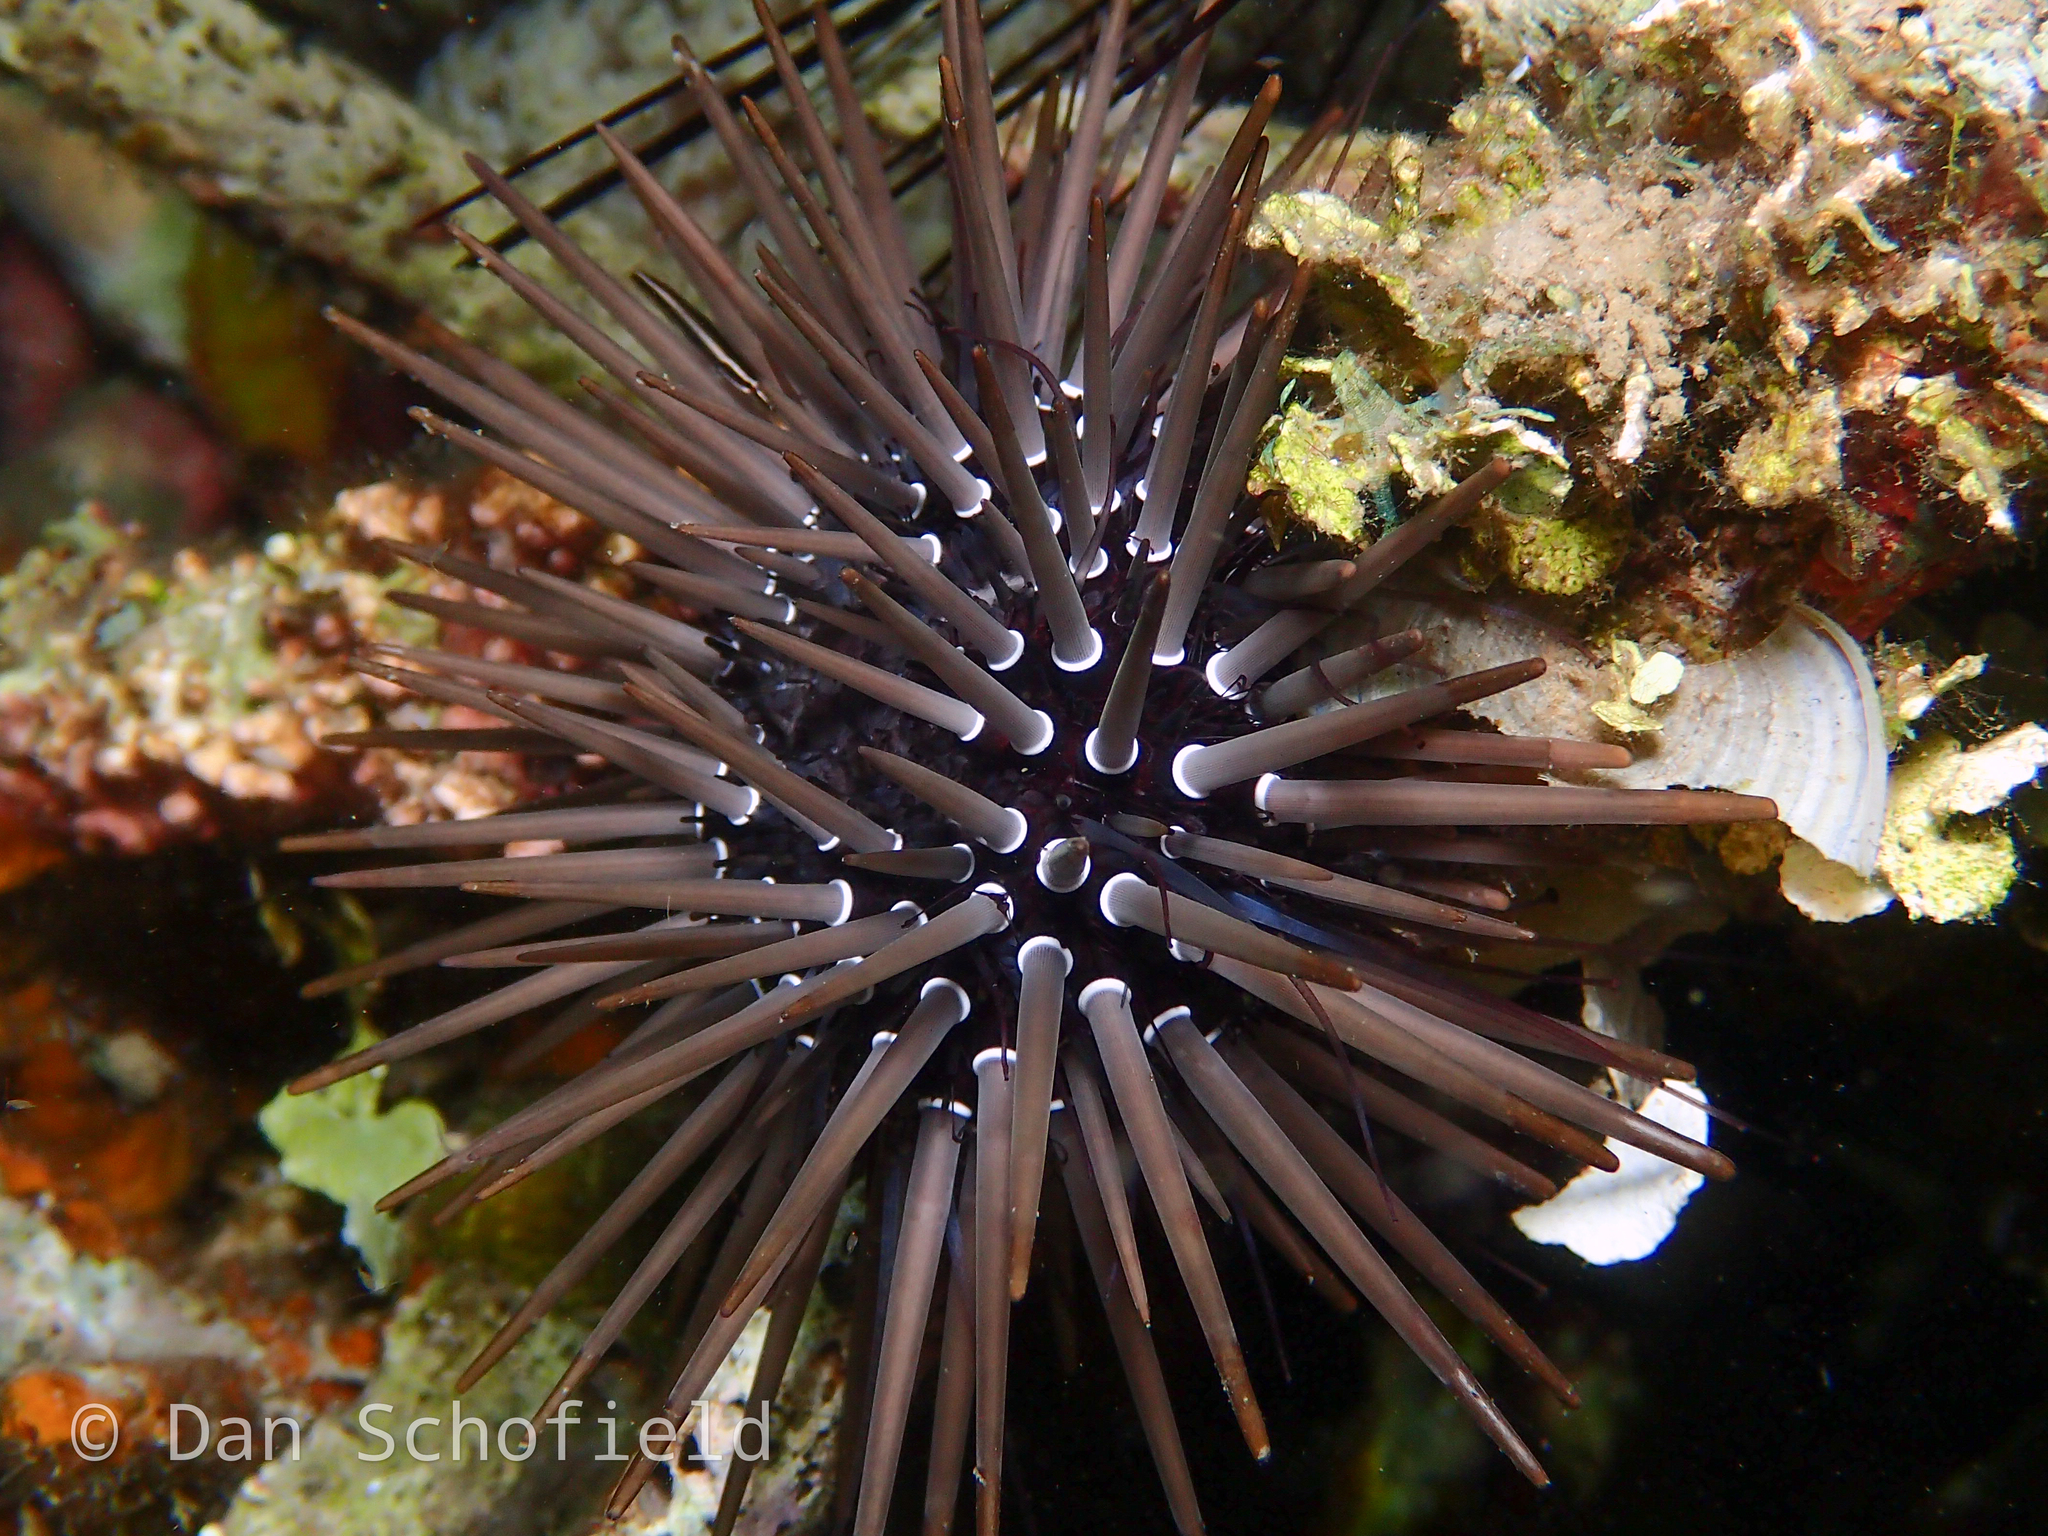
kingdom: Animalia
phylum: Echinodermata
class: Echinoidea
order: Camarodonta
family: Echinometridae
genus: Echinometra
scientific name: Echinometra mathaei
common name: Rock-boring urchin
